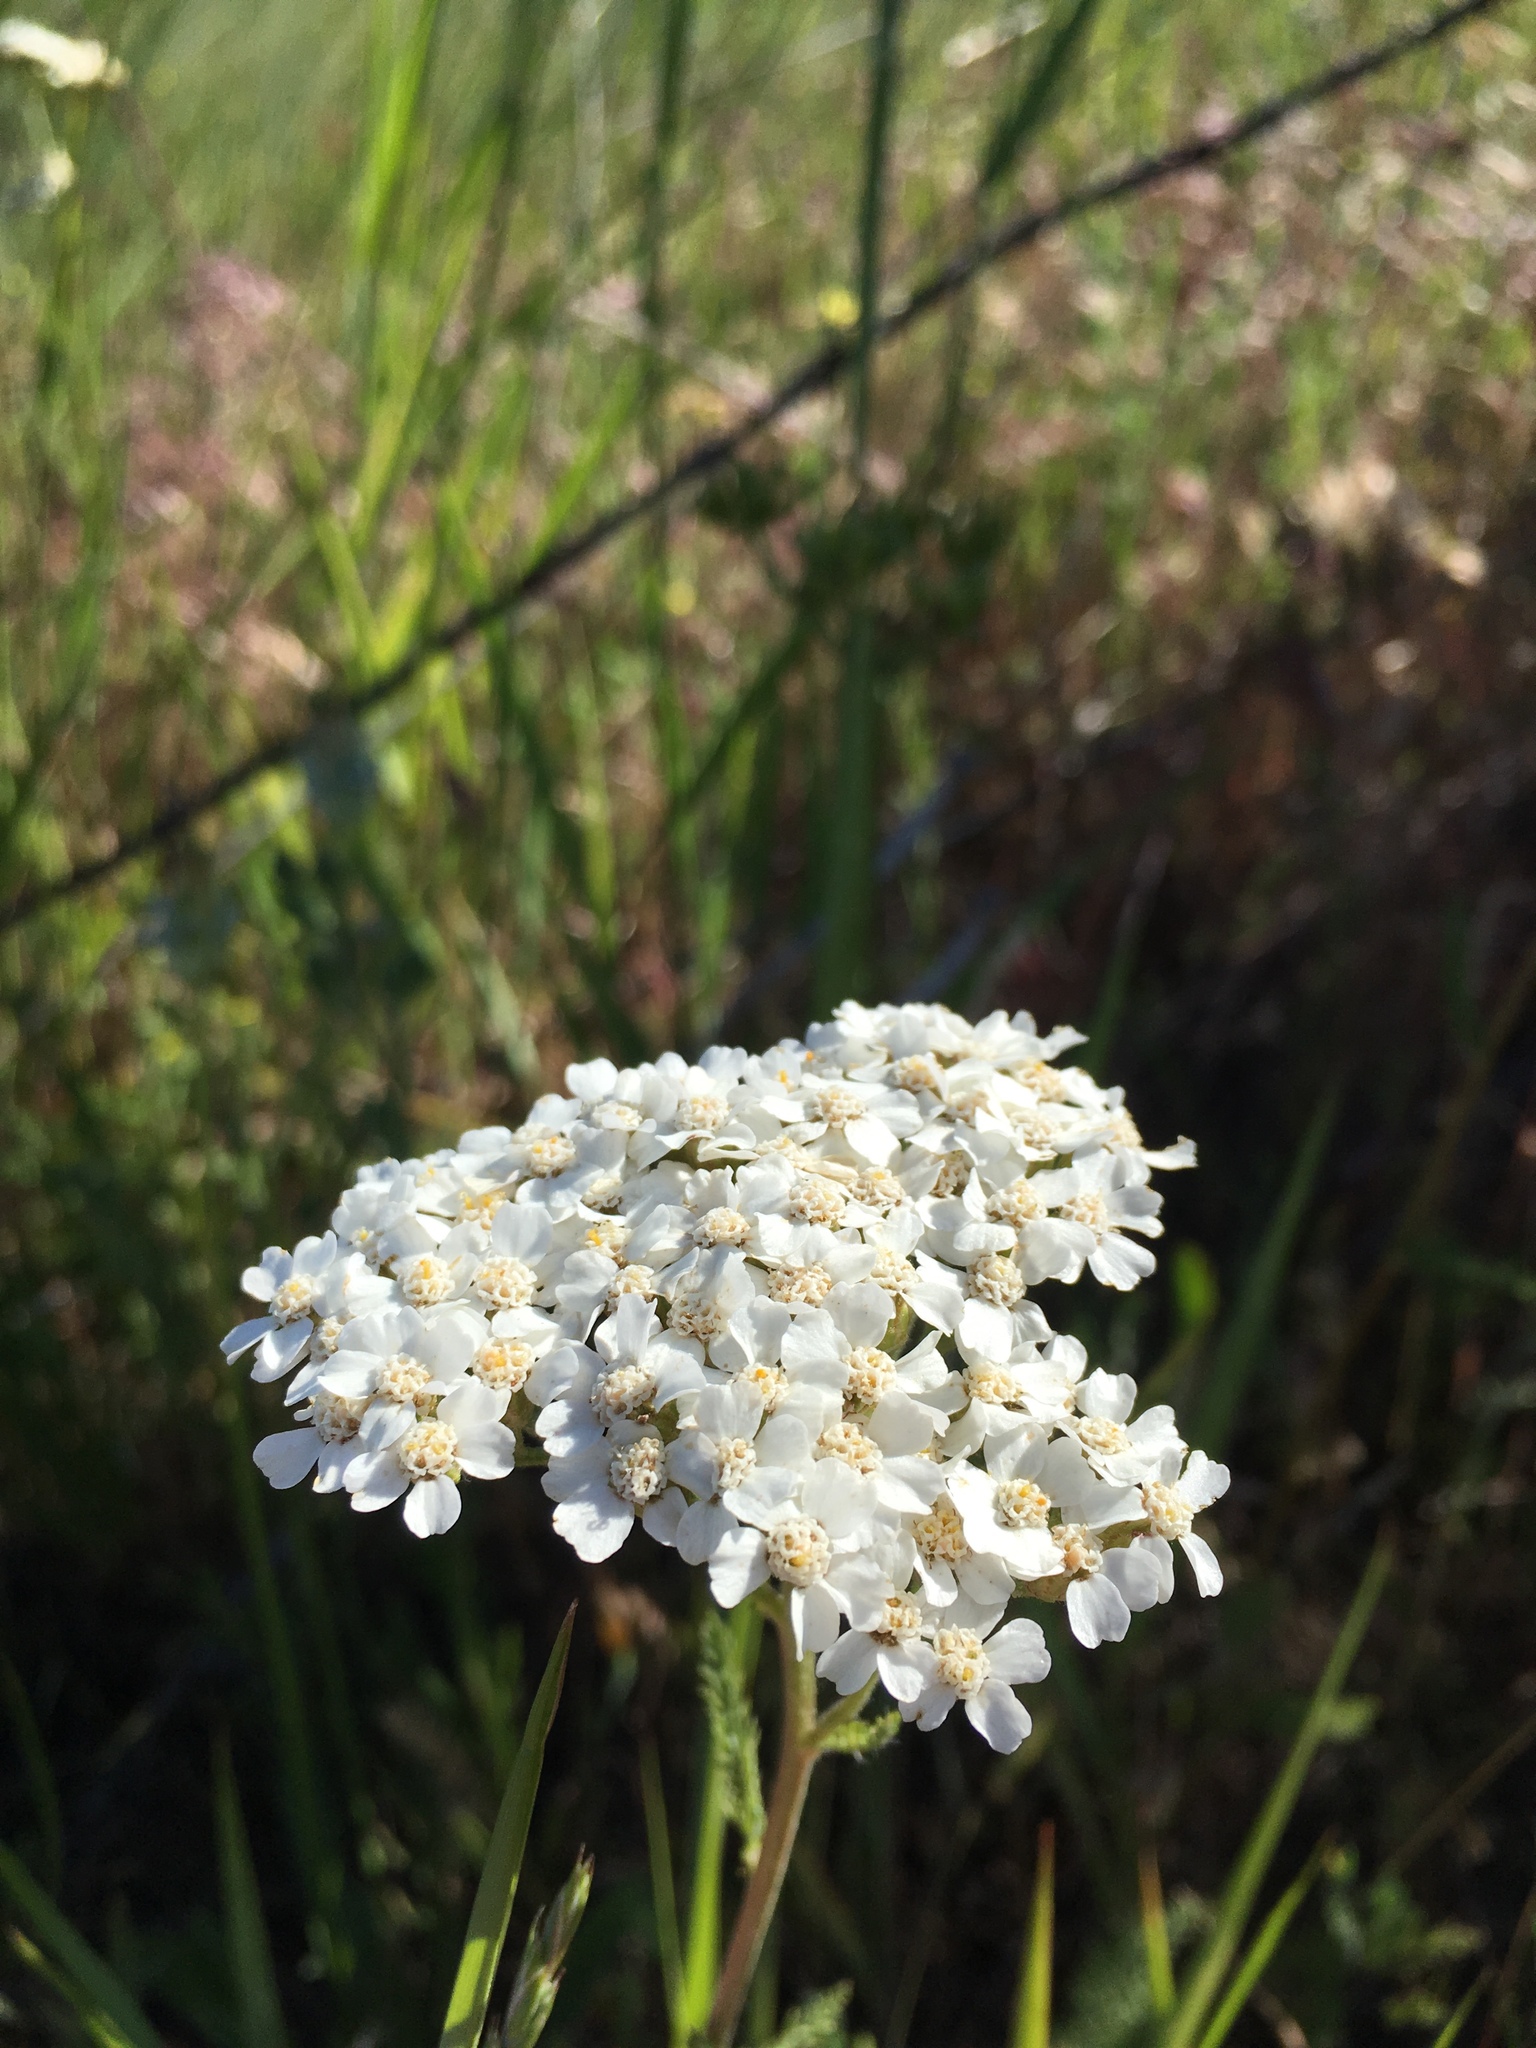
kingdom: Plantae
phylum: Tracheophyta
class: Magnoliopsida
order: Asterales
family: Asteraceae
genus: Achillea
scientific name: Achillea millefolium
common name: Yarrow
